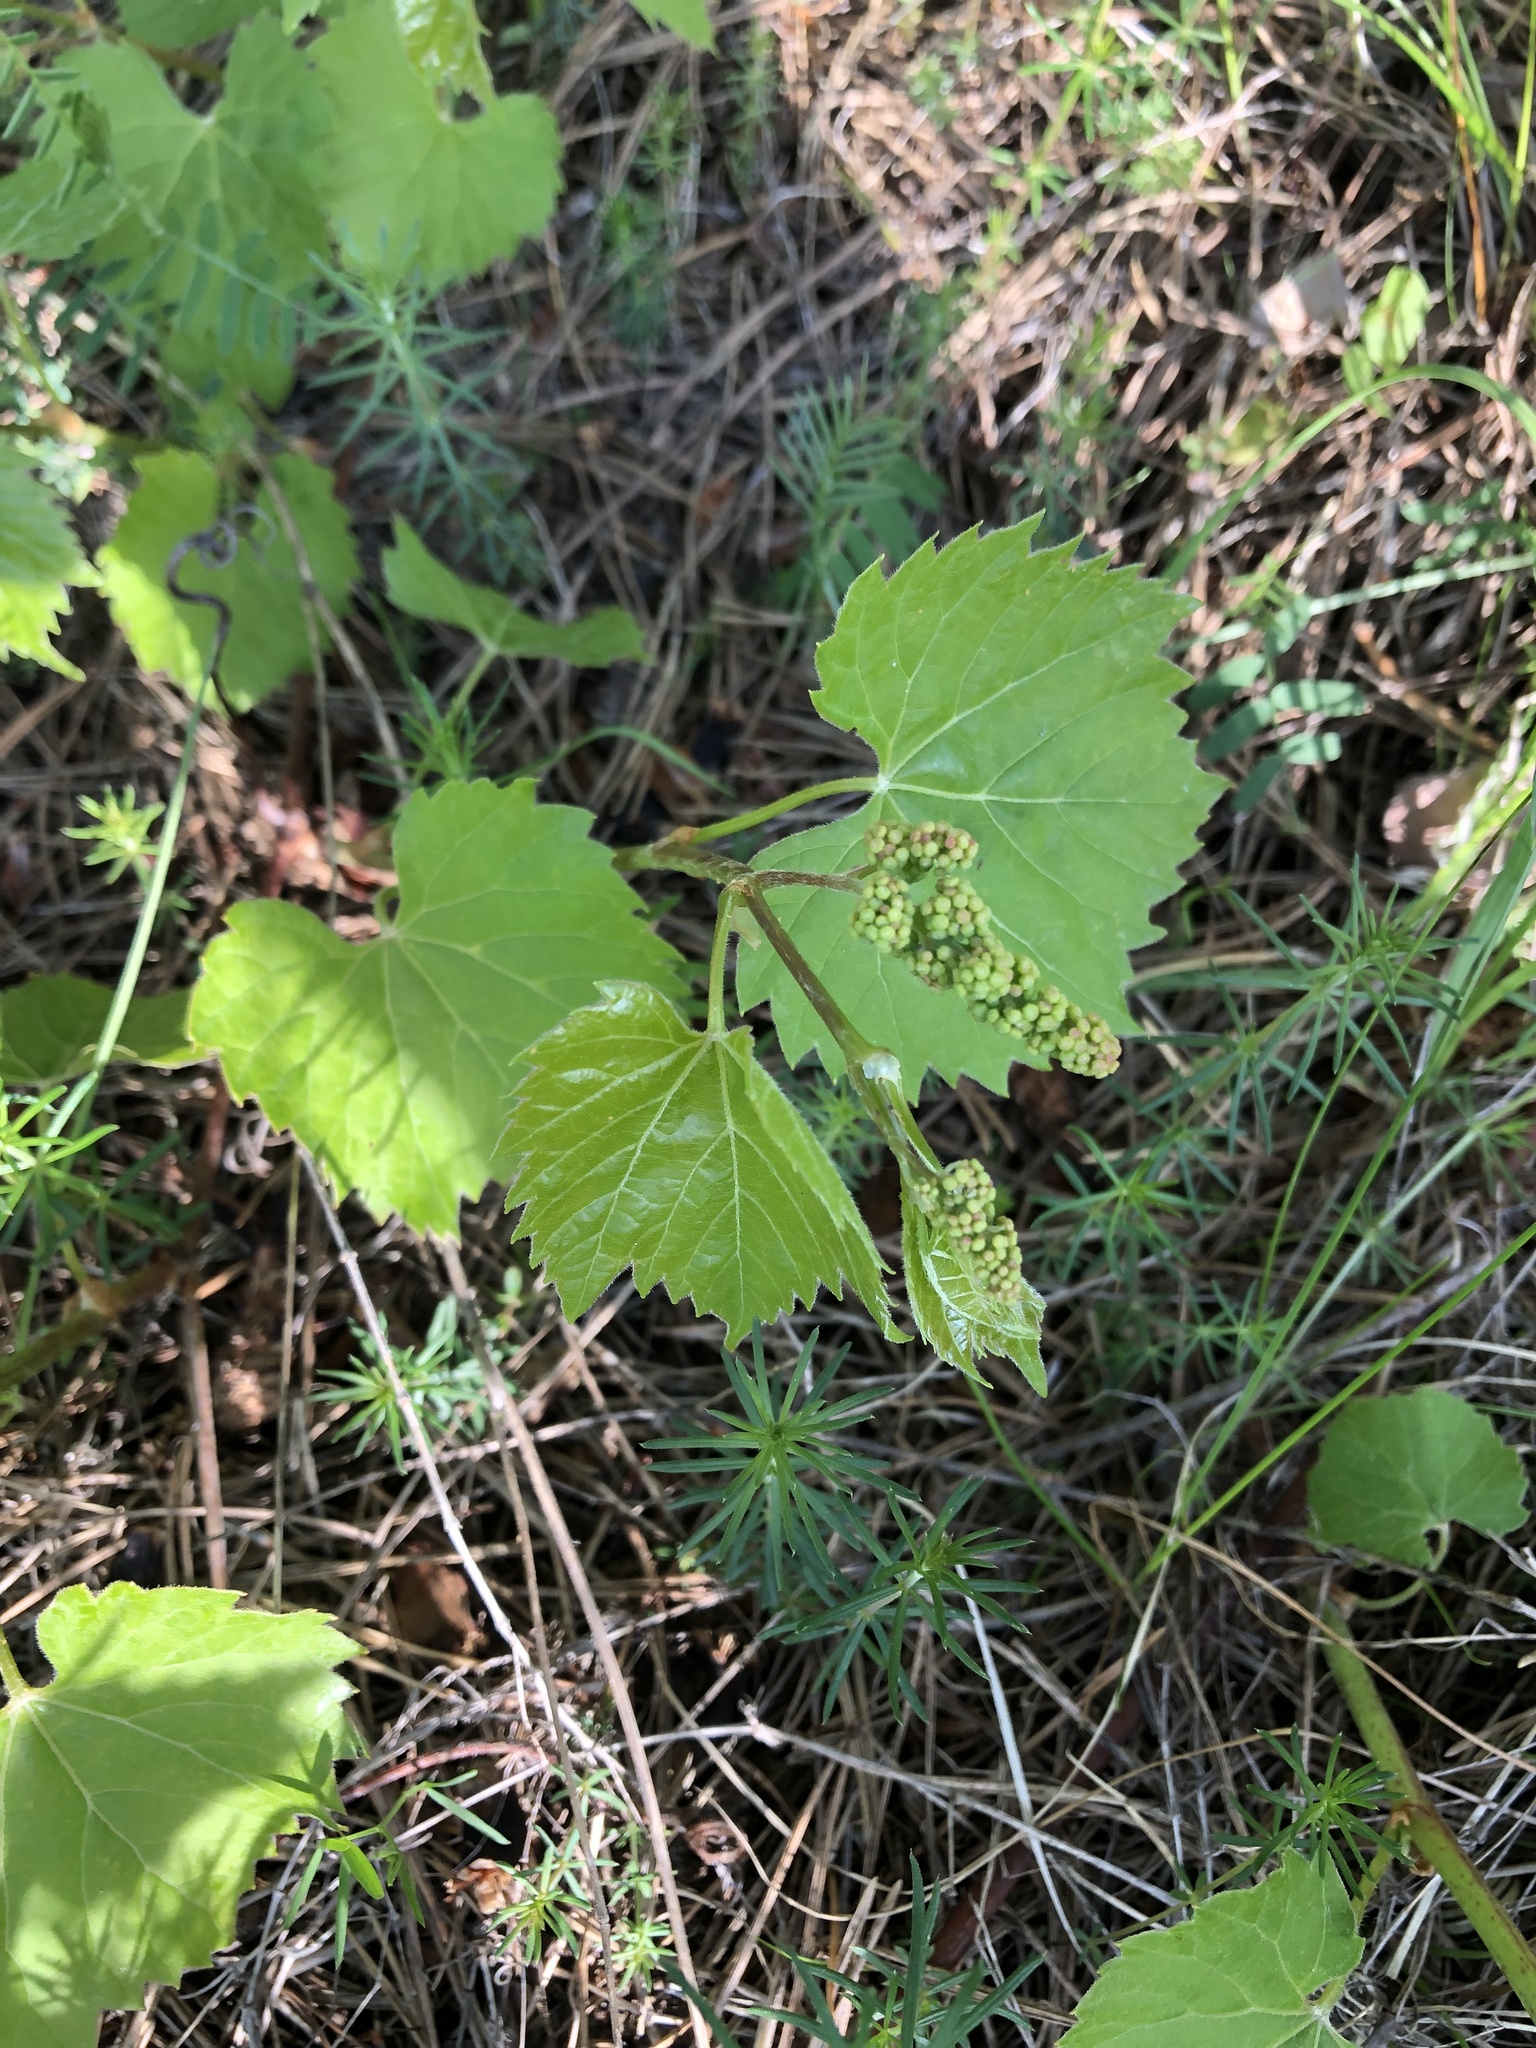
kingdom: Plantae
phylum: Tracheophyta
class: Magnoliopsida
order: Vitales
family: Vitaceae
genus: Vitis
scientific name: Vitis riparia
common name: Frost grape
